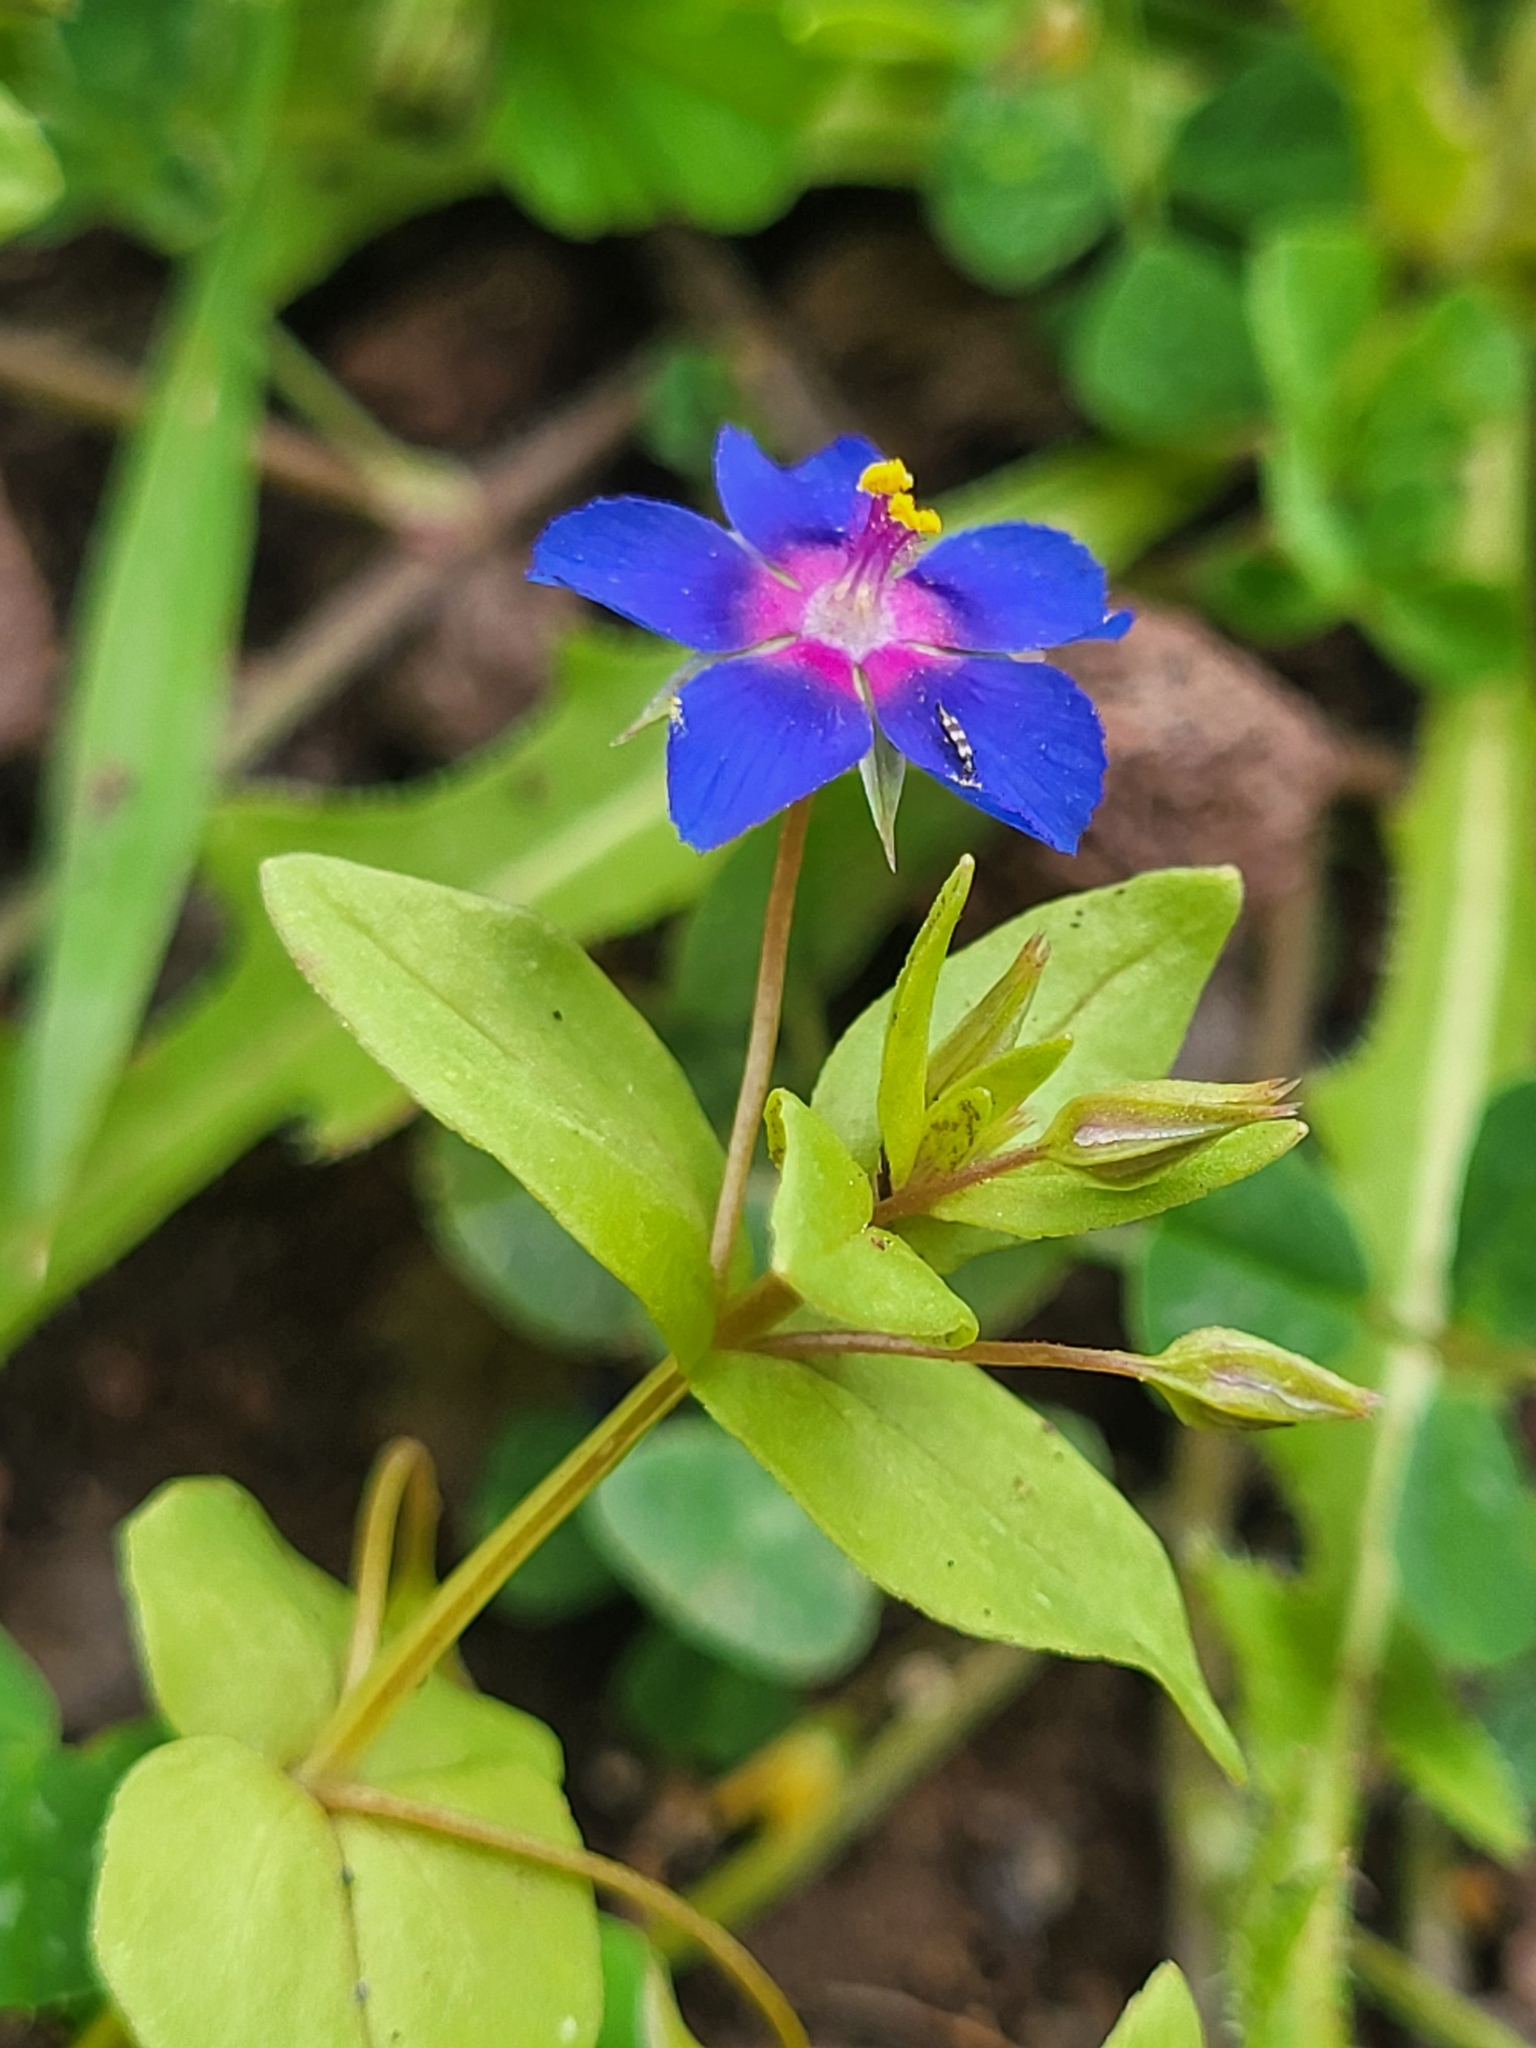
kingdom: Plantae
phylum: Tracheophyta
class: Magnoliopsida
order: Ericales
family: Primulaceae
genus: Lysimachia
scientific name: Lysimachia loeflingii
